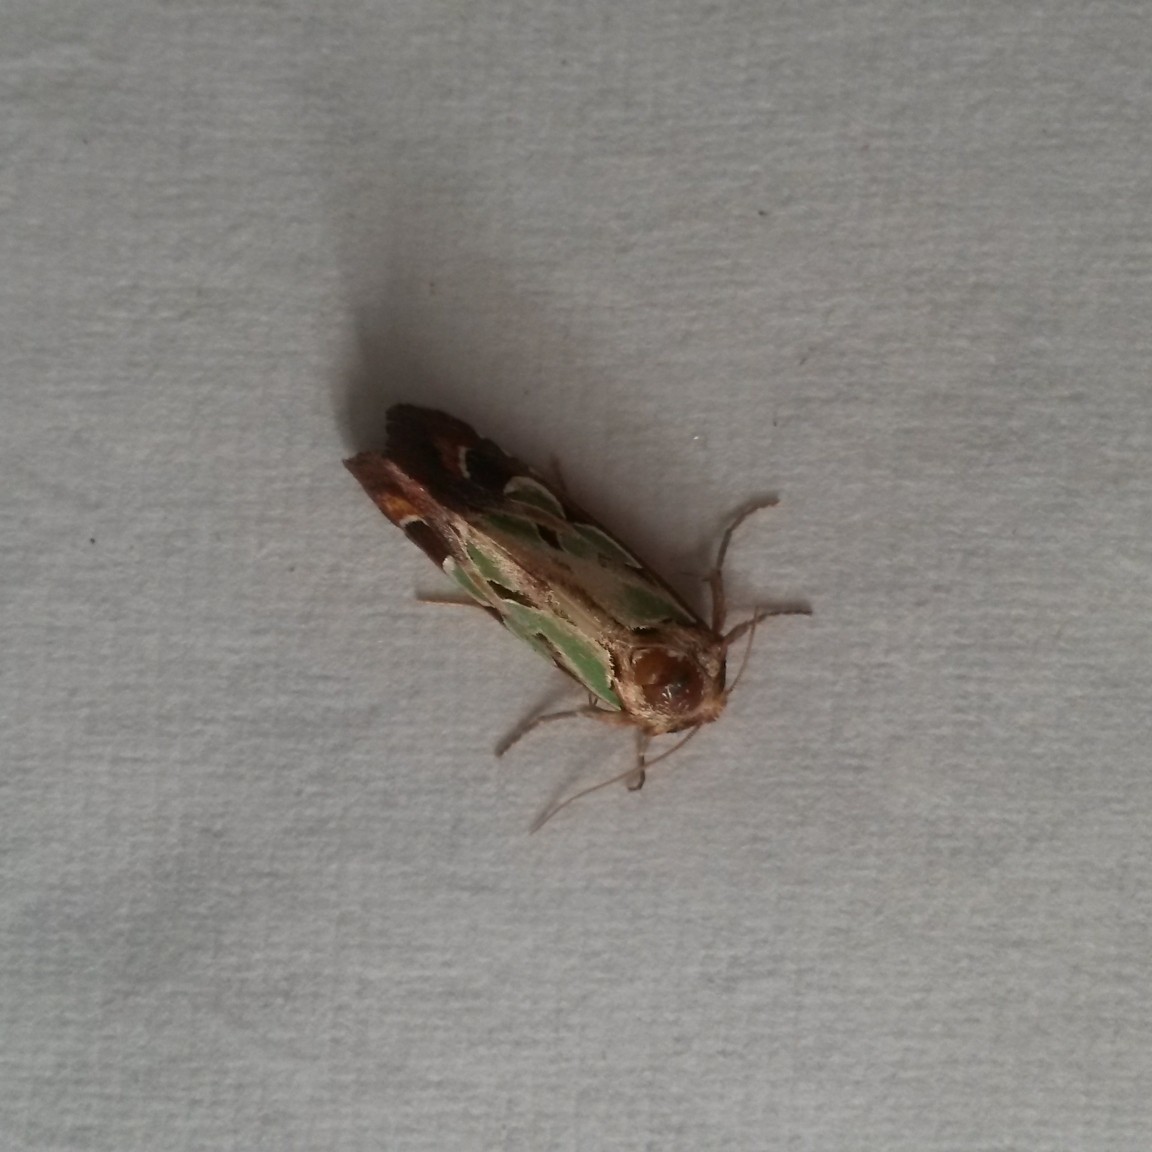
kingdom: Animalia
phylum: Arthropoda
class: Insecta
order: Lepidoptera
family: Noctuidae
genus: Cosmodes
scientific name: Cosmodes elegans
